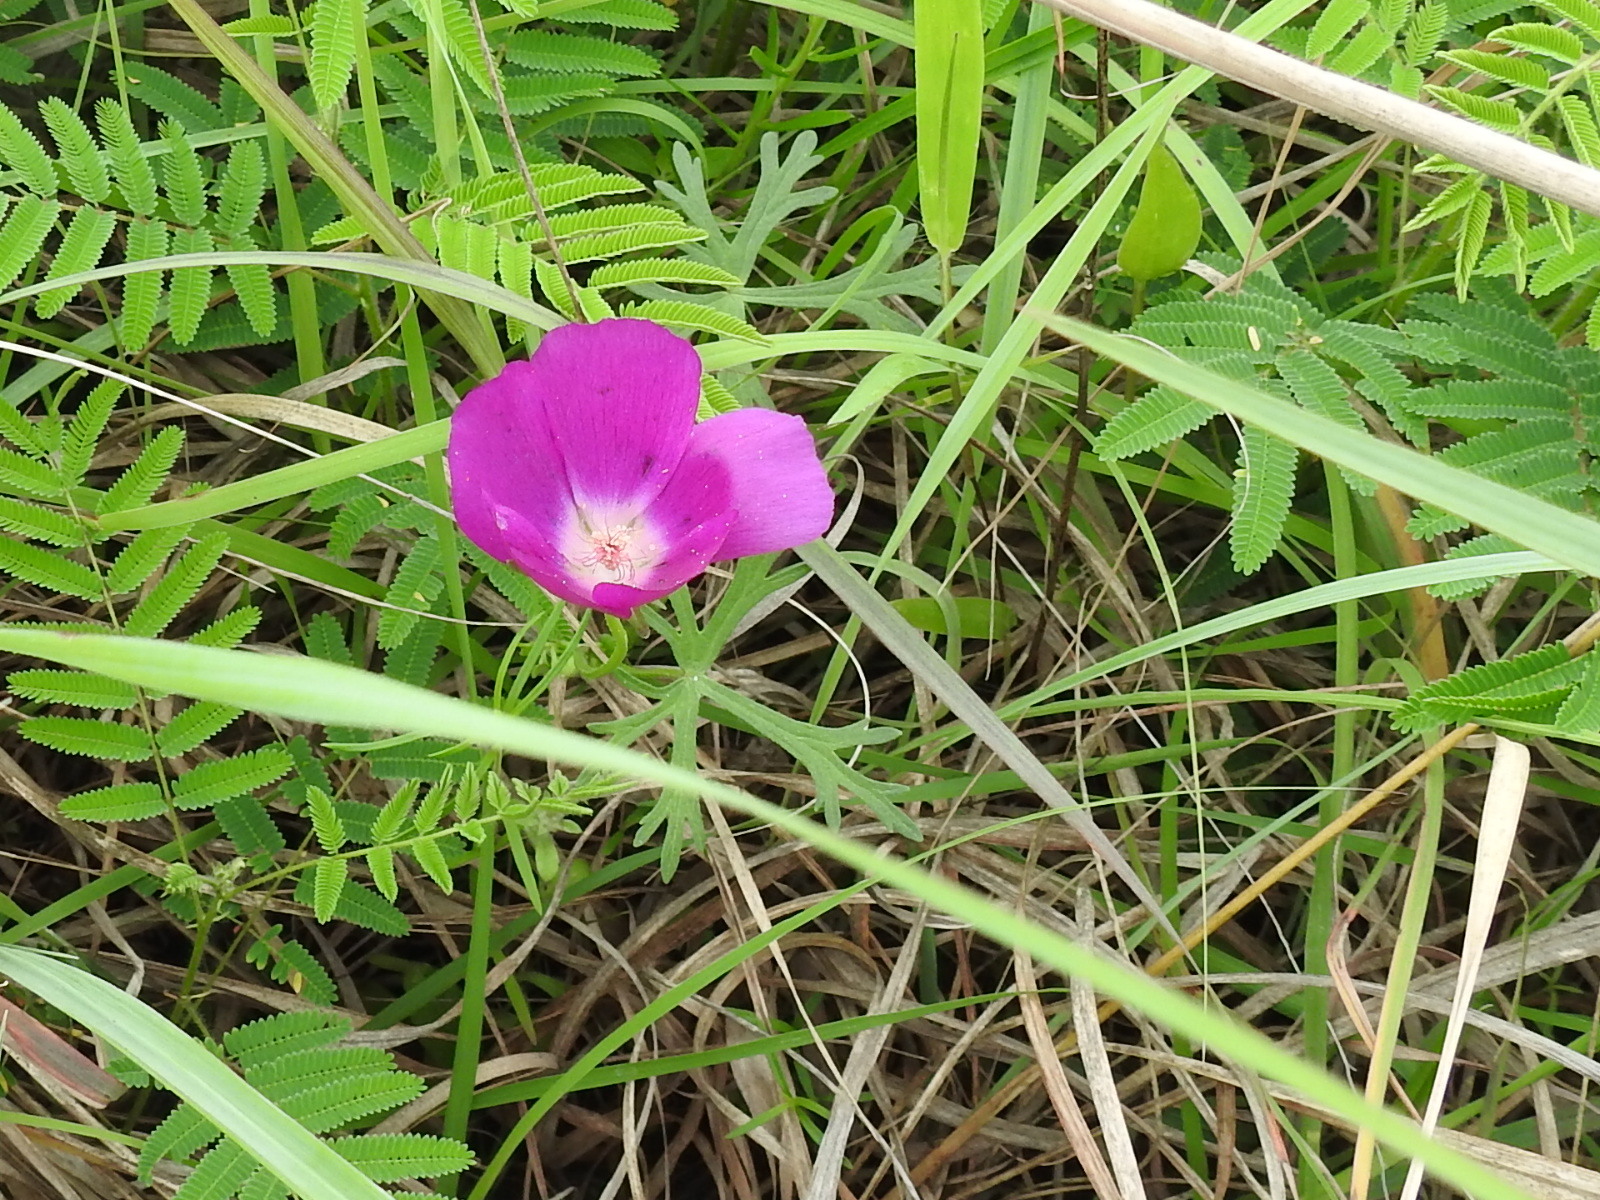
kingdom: Plantae
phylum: Tracheophyta
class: Magnoliopsida
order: Malvales
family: Malvaceae
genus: Callirhoe
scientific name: Callirhoe involucrata
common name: Purple poppy-mallow
